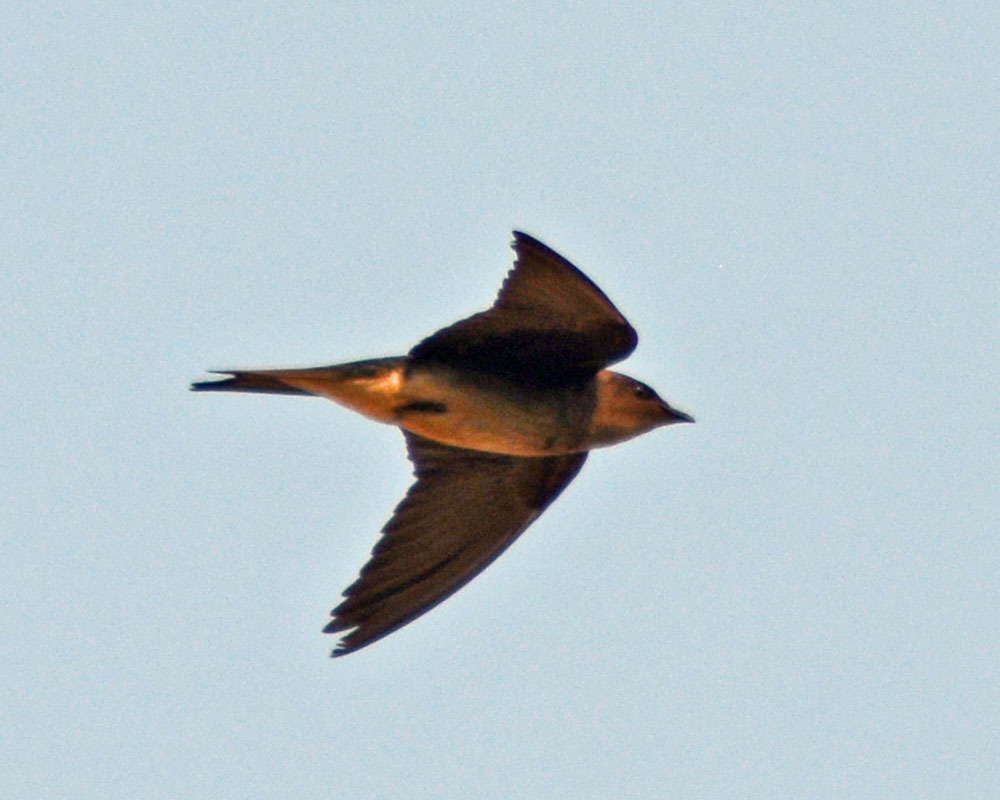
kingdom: Animalia
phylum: Chordata
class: Aves
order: Passeriformes
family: Hirundinidae
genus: Progne
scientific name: Progne subis
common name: Purple martin
